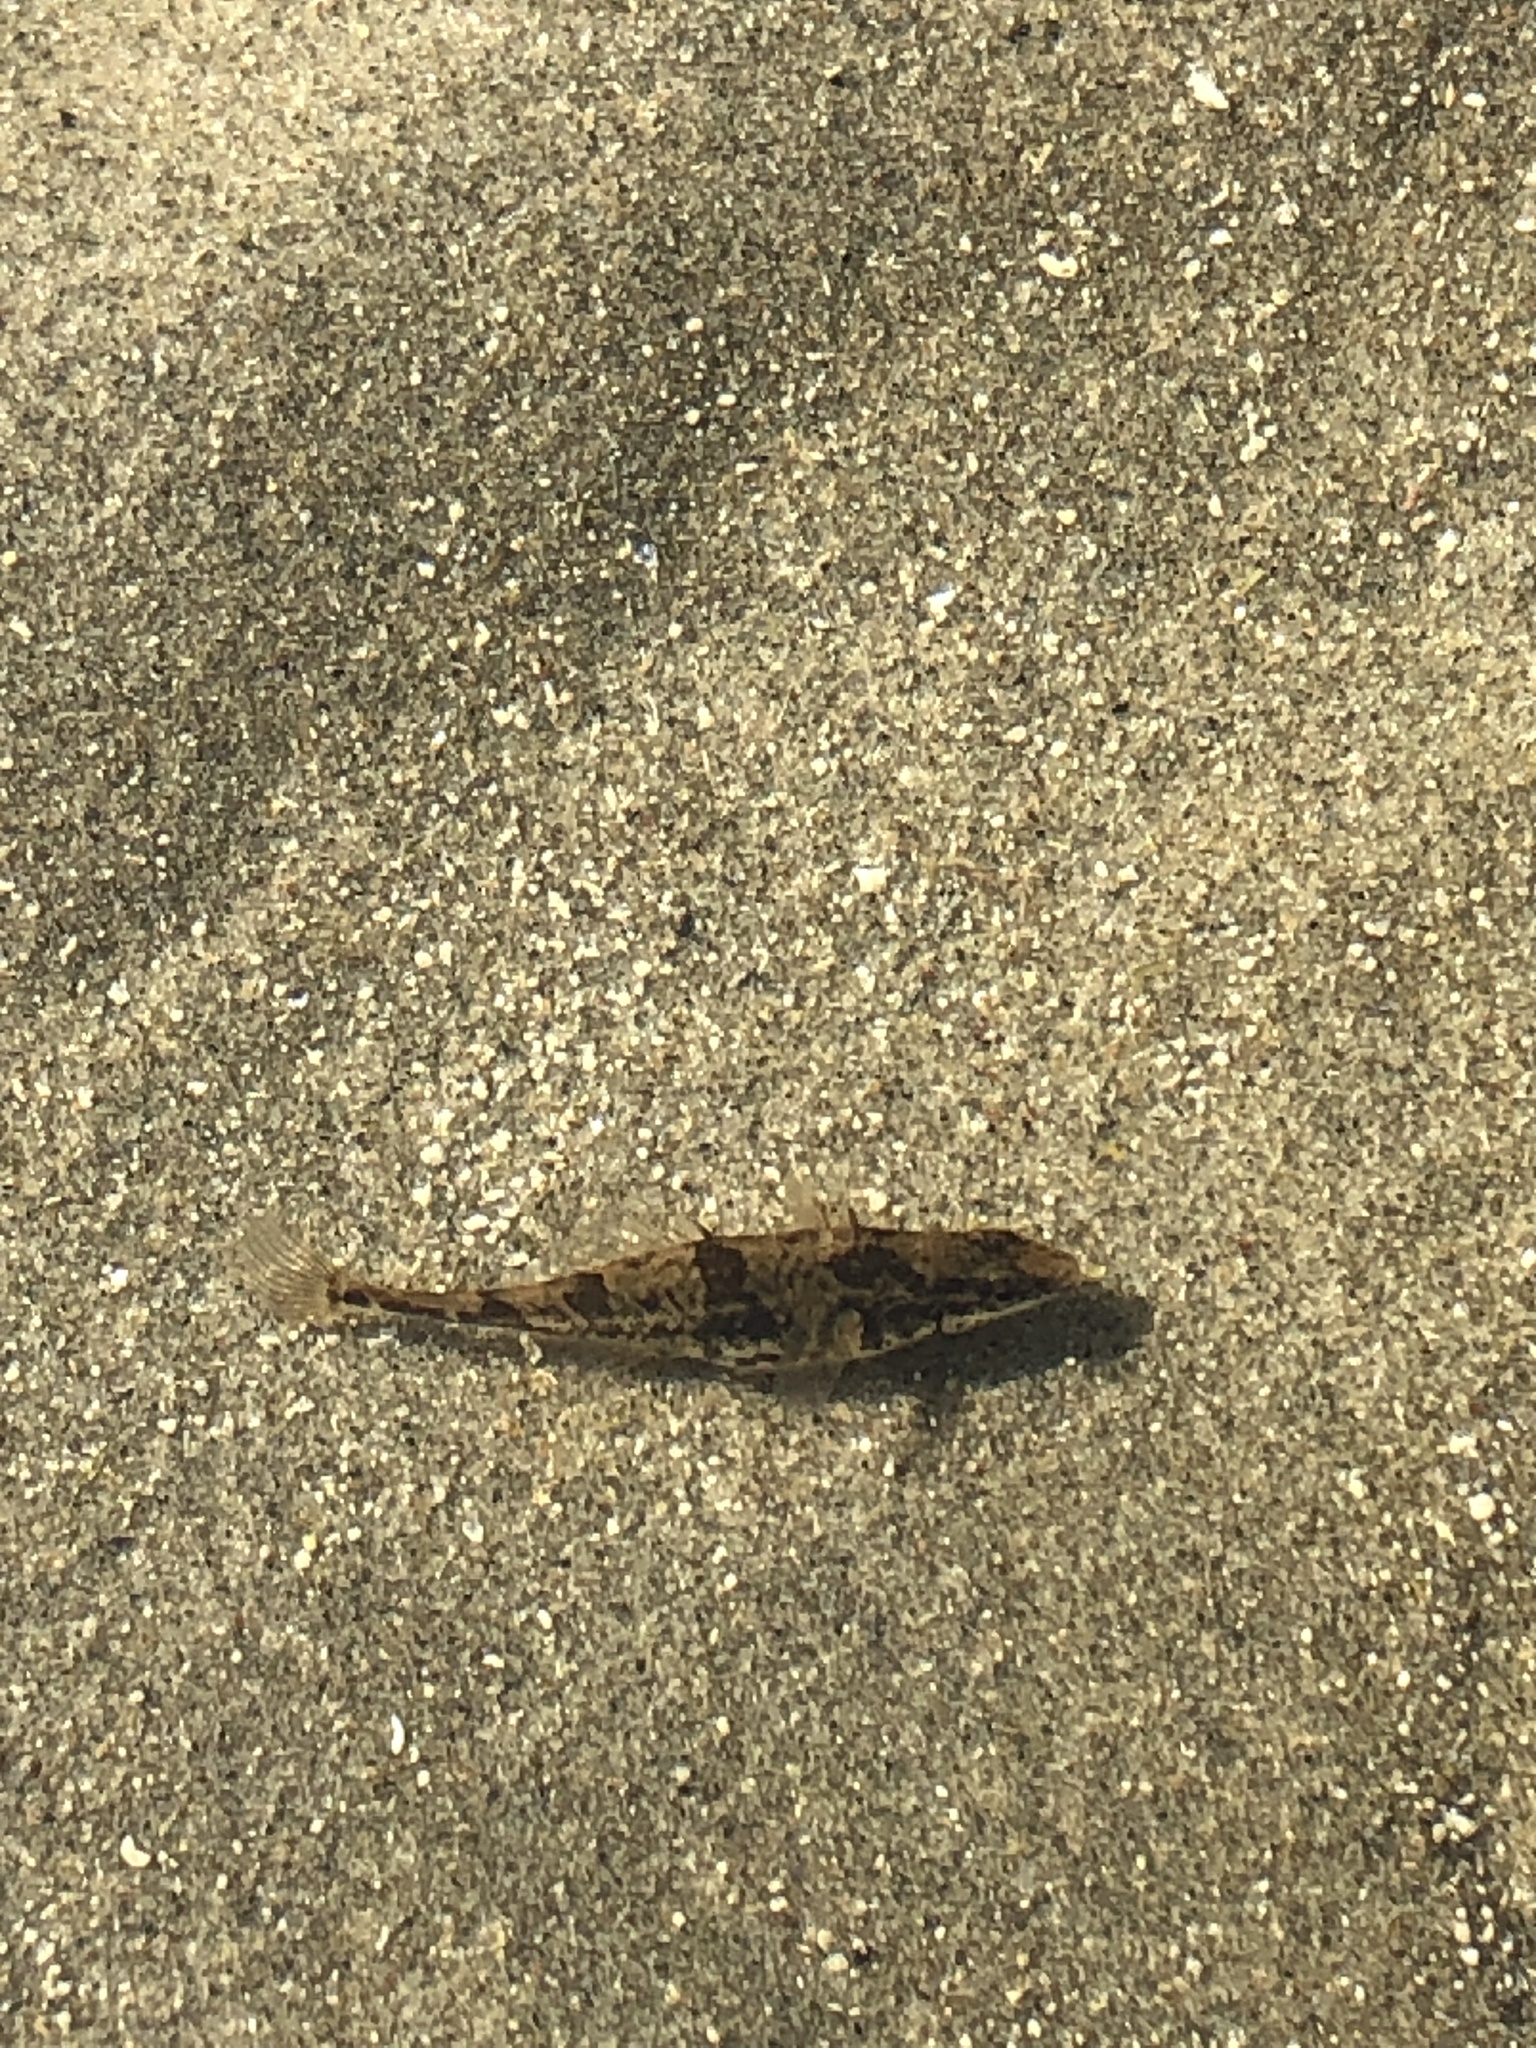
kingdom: Animalia
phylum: Chordata
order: Gasterosteiformes
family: Gasterosteidae
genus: Apeltes
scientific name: Apeltes quadracus
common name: Fourspine stickleback
